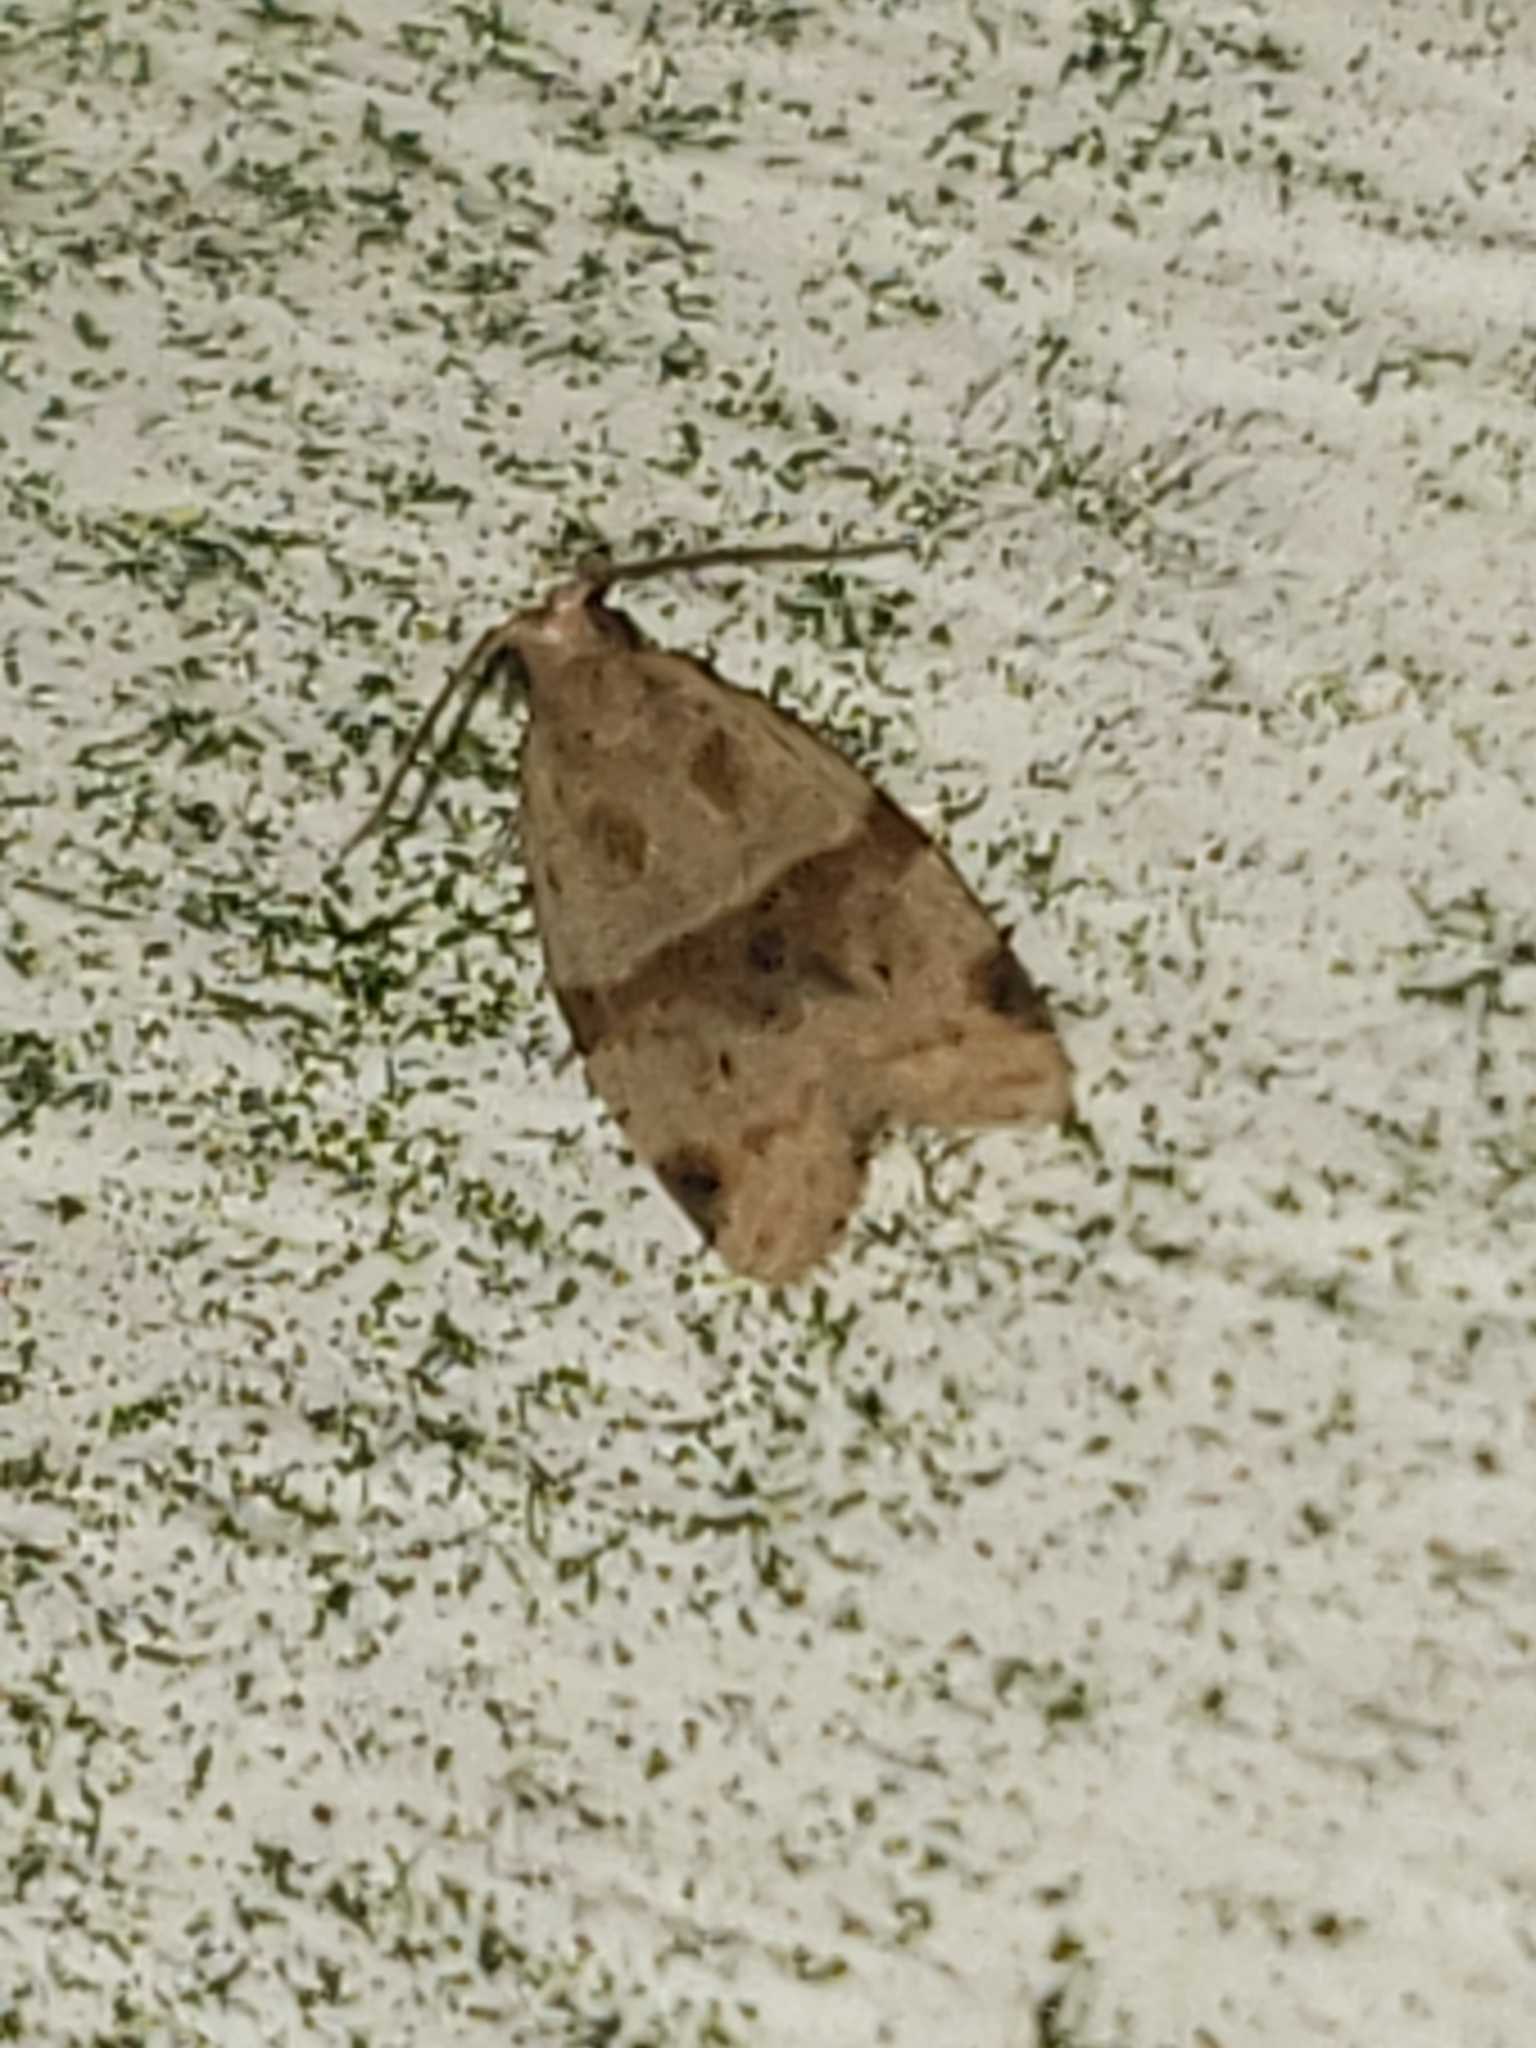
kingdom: Animalia
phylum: Arthropoda
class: Insecta
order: Lepidoptera
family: Tortricidae
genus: Clepsis
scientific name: Clepsis peritana
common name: Garden tortrix
